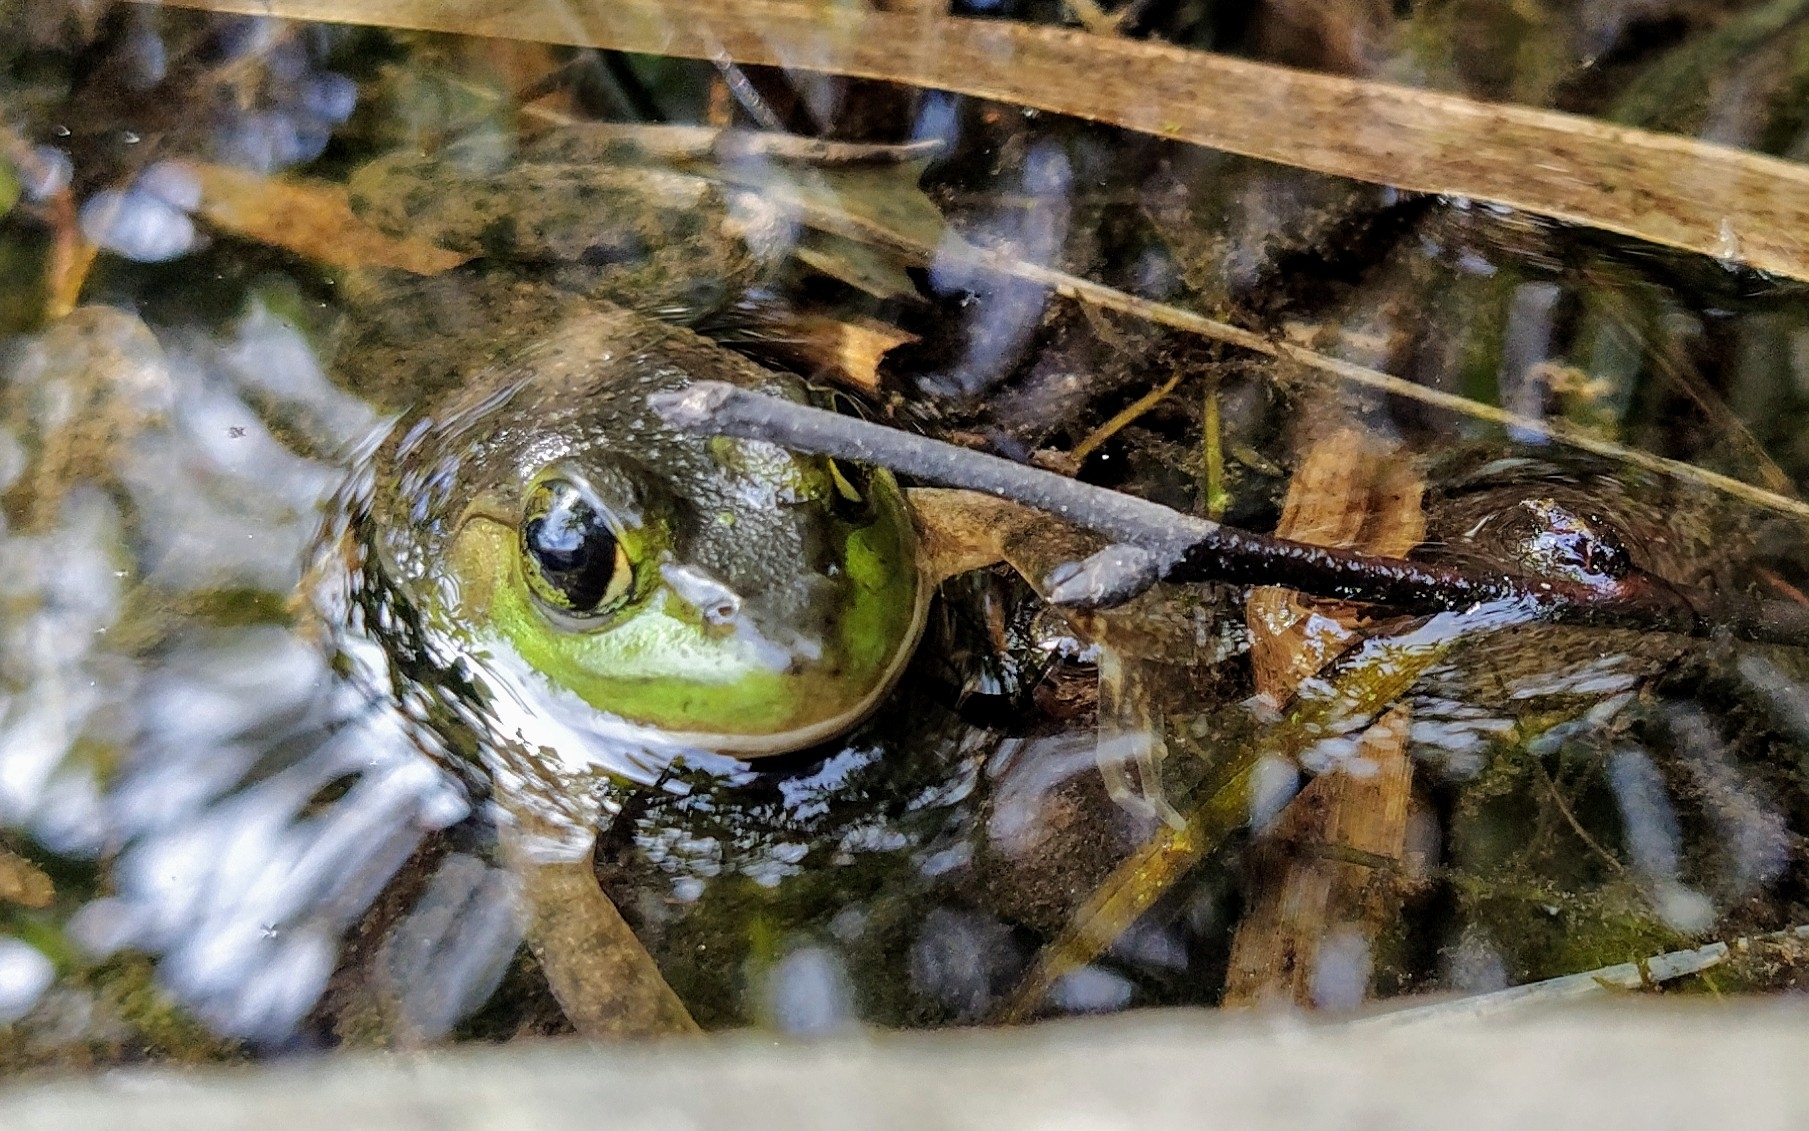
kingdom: Animalia
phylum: Chordata
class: Amphibia
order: Anura
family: Ranidae
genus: Lithobates
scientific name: Lithobates catesbeianus
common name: American bullfrog
